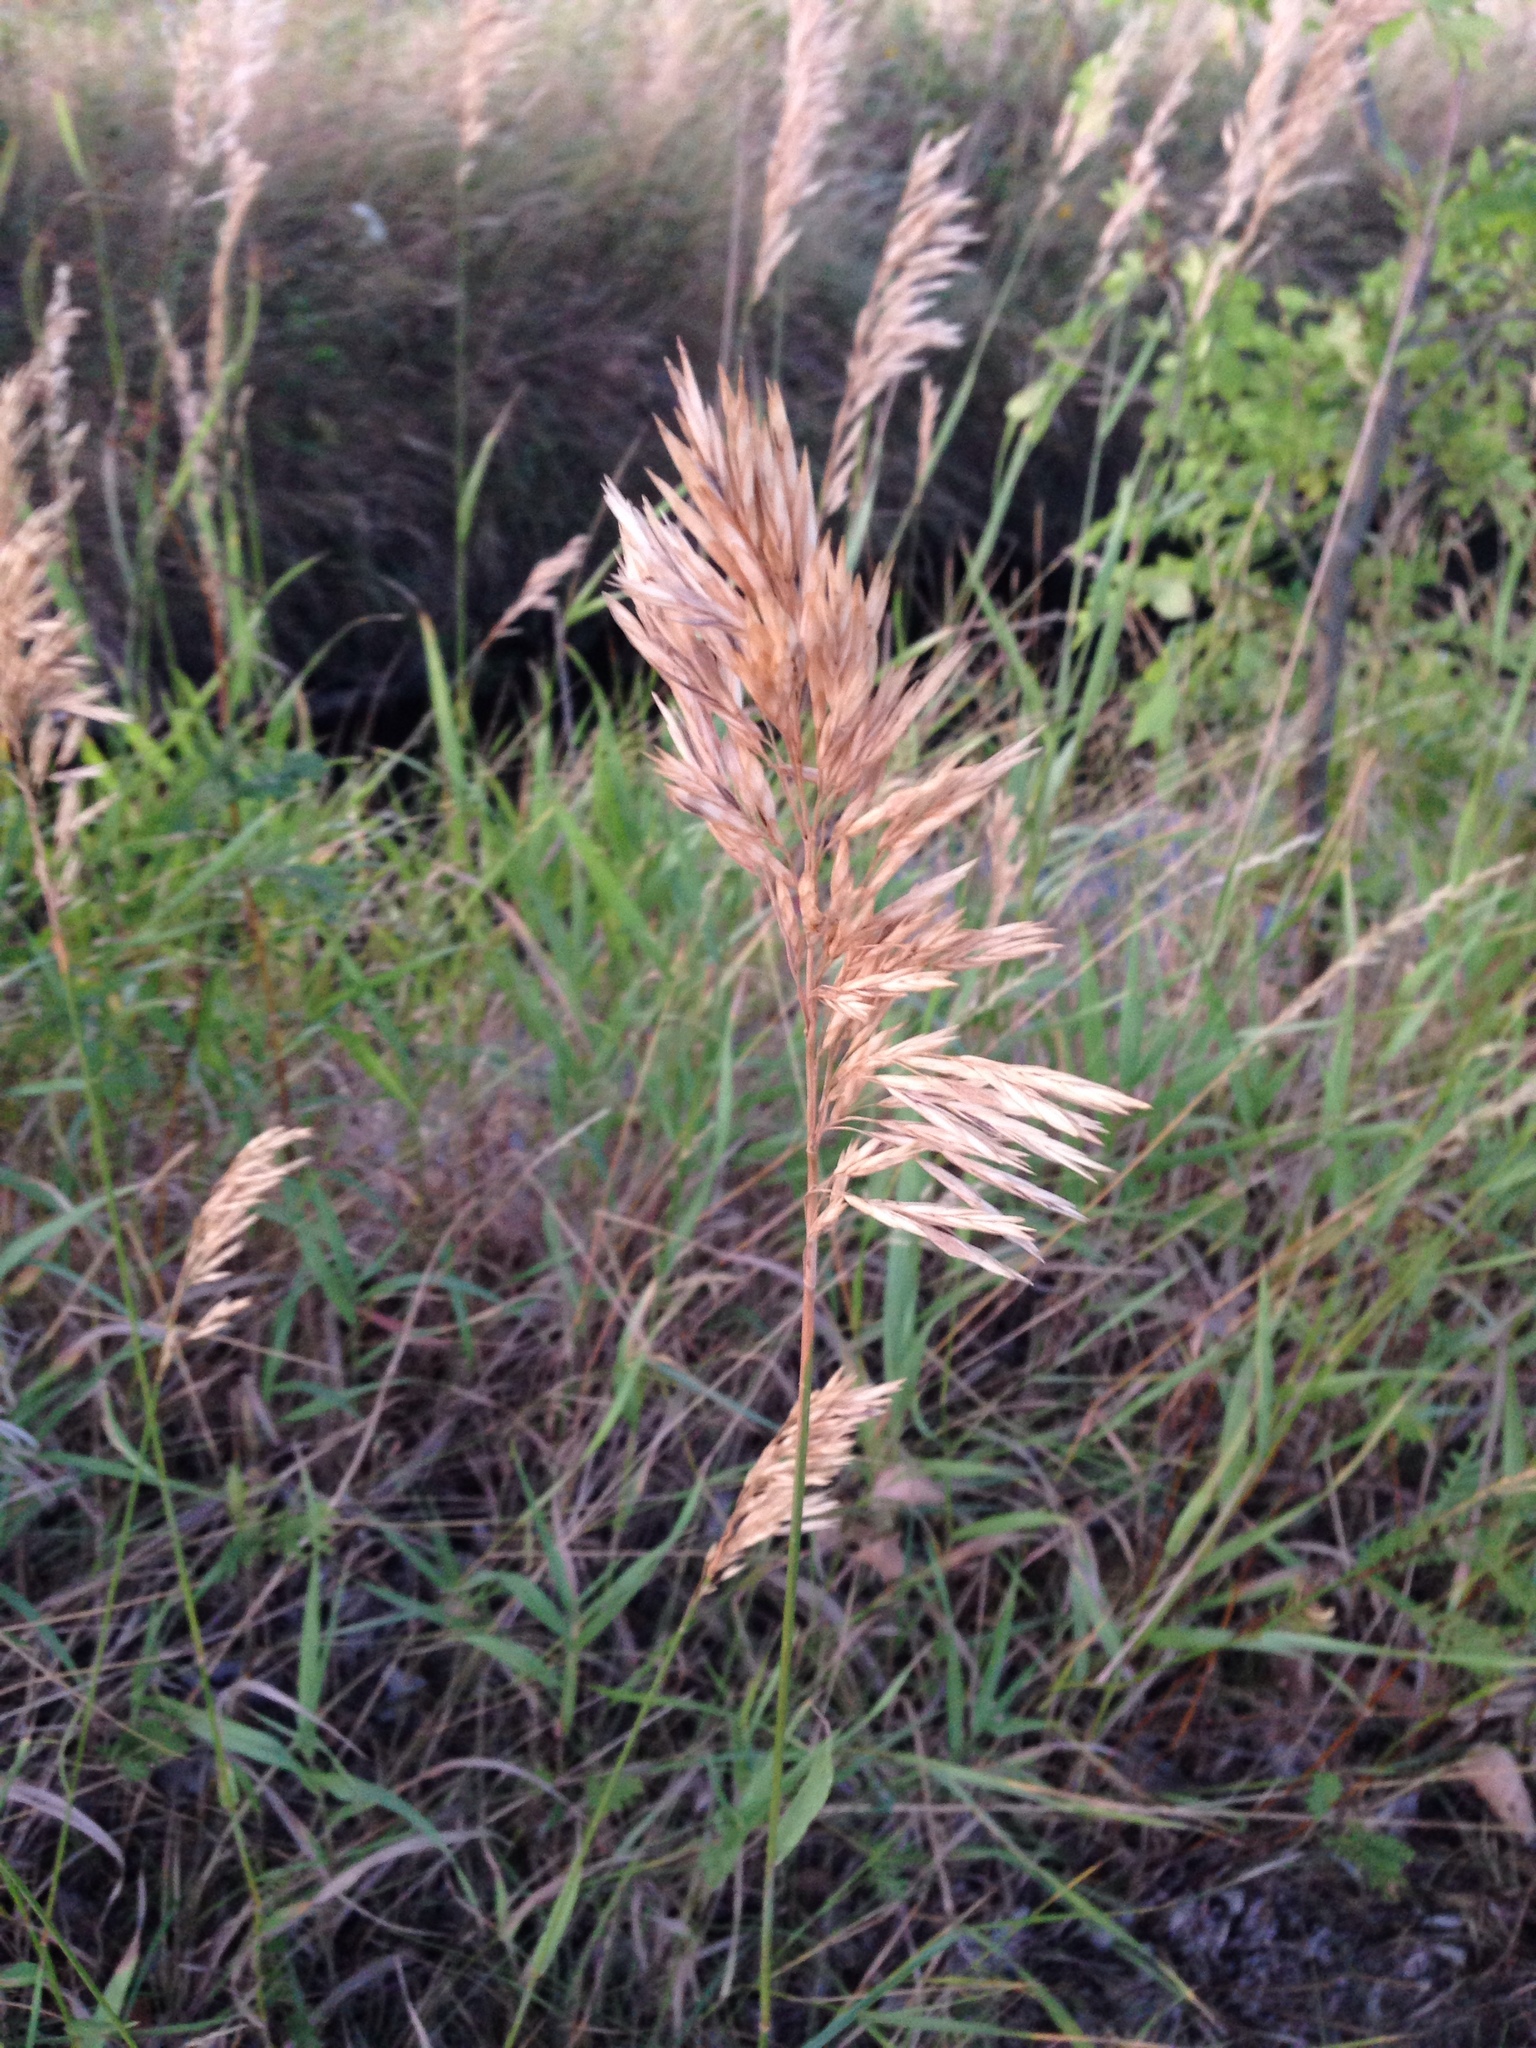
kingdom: Plantae
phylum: Tracheophyta
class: Liliopsida
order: Poales
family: Poaceae
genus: Bromus
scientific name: Bromus inermis
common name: Smooth brome
